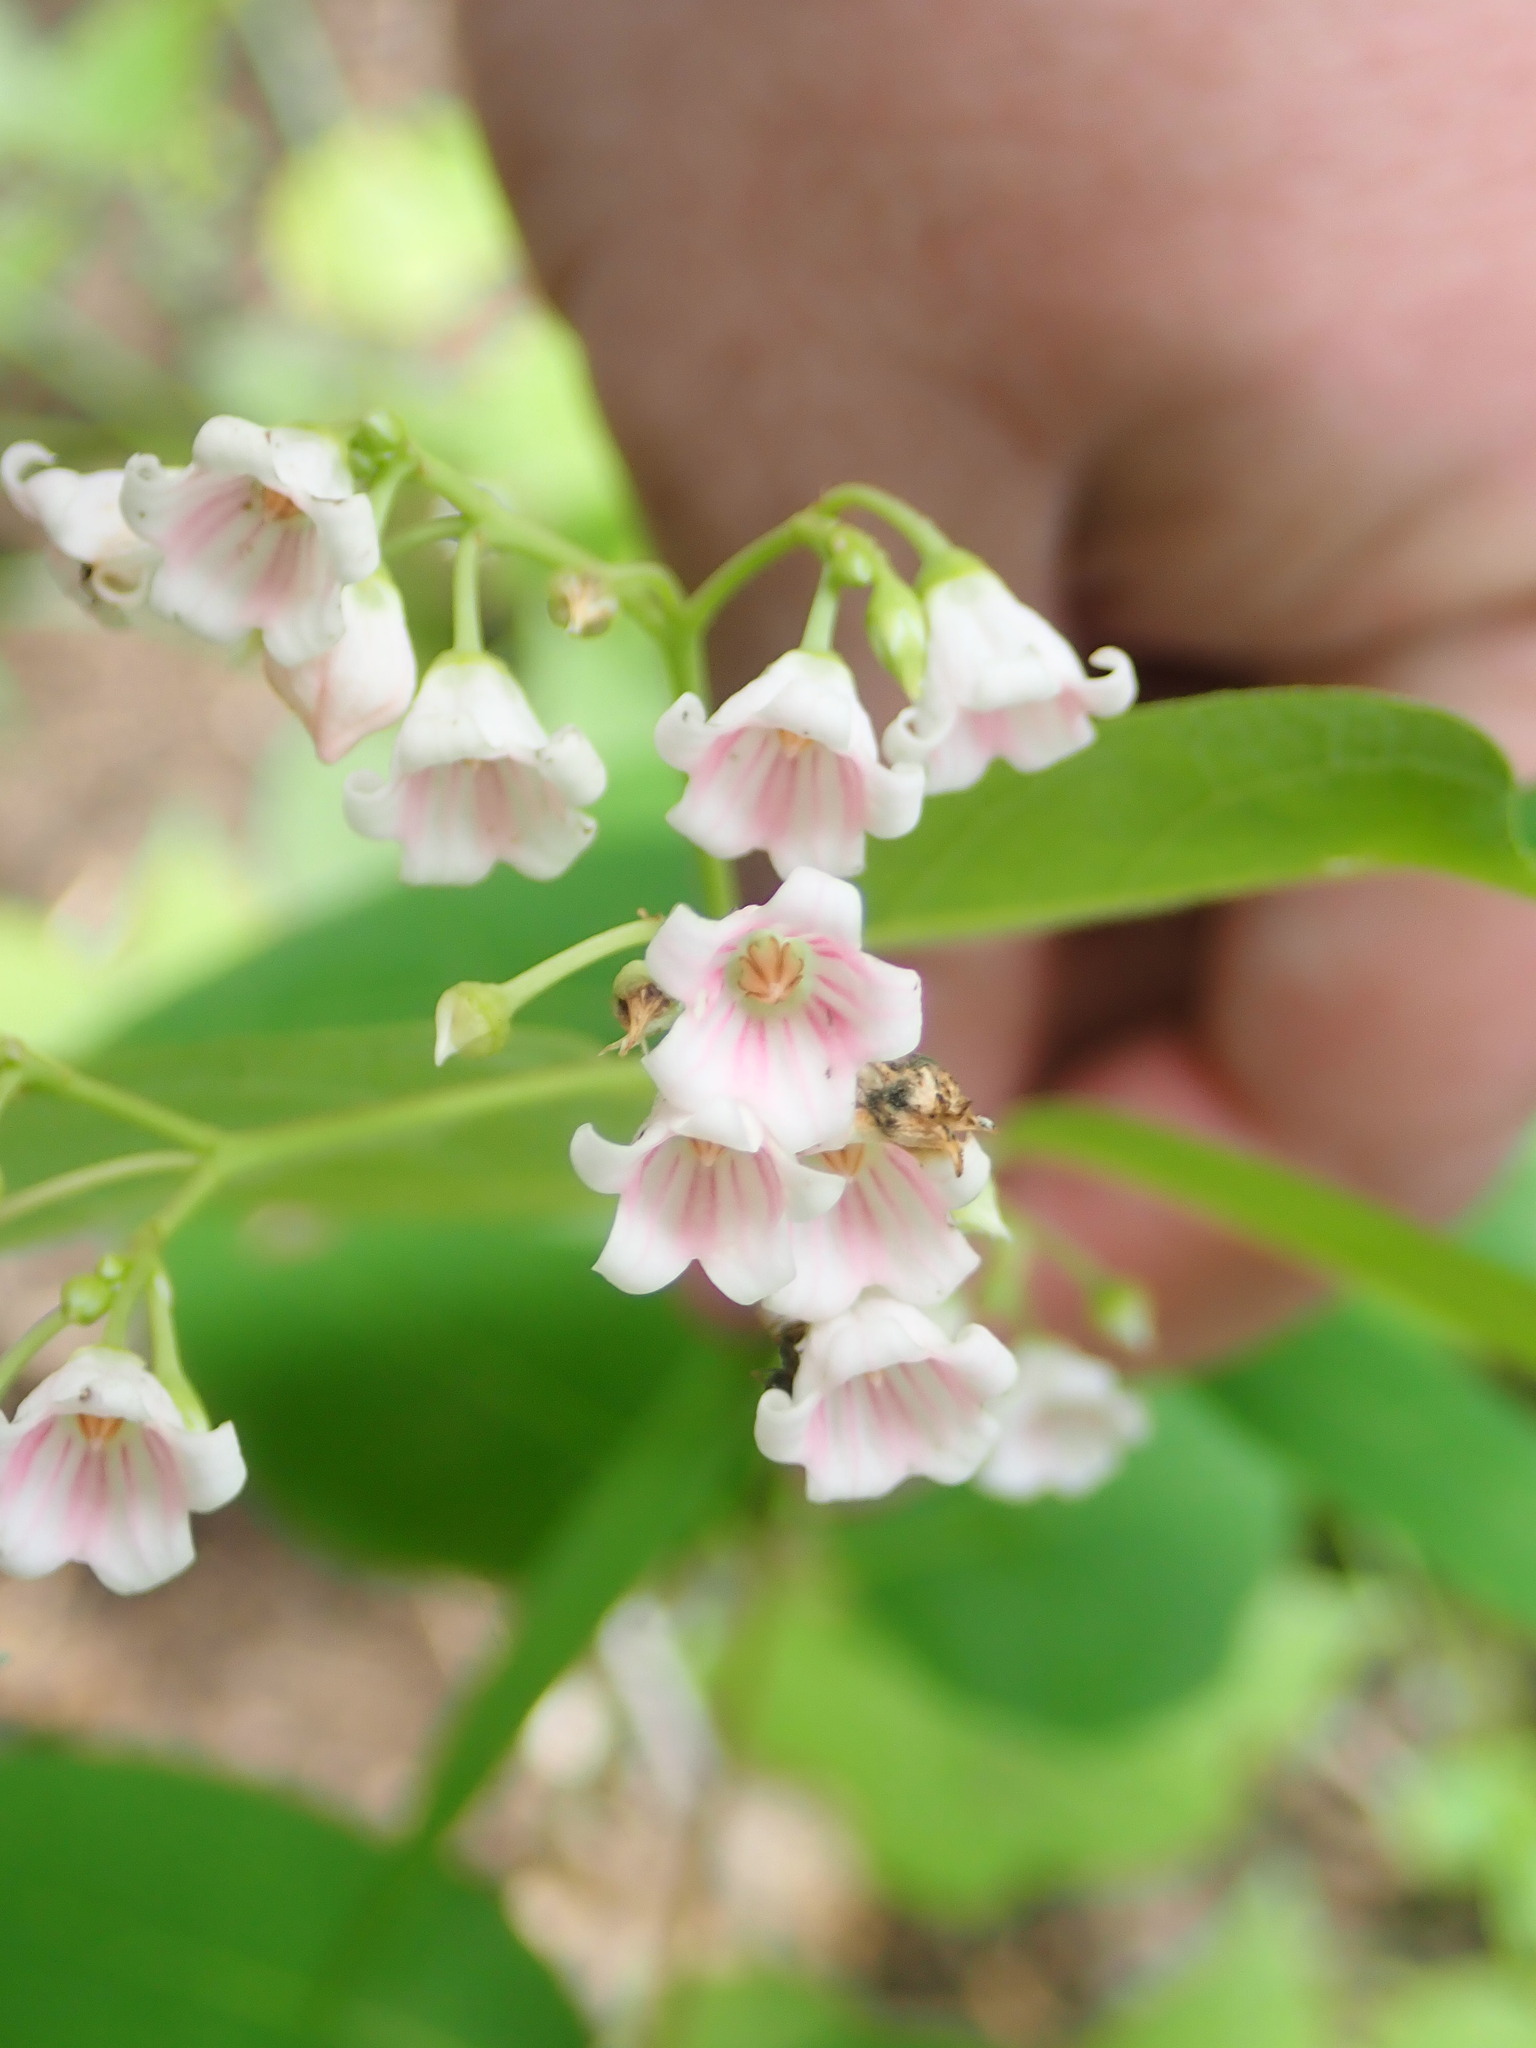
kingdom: Plantae
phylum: Tracheophyta
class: Magnoliopsida
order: Gentianales
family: Apocynaceae
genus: Apocynum
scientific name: Apocynum androsaemifolium
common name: Spreading dogbane
